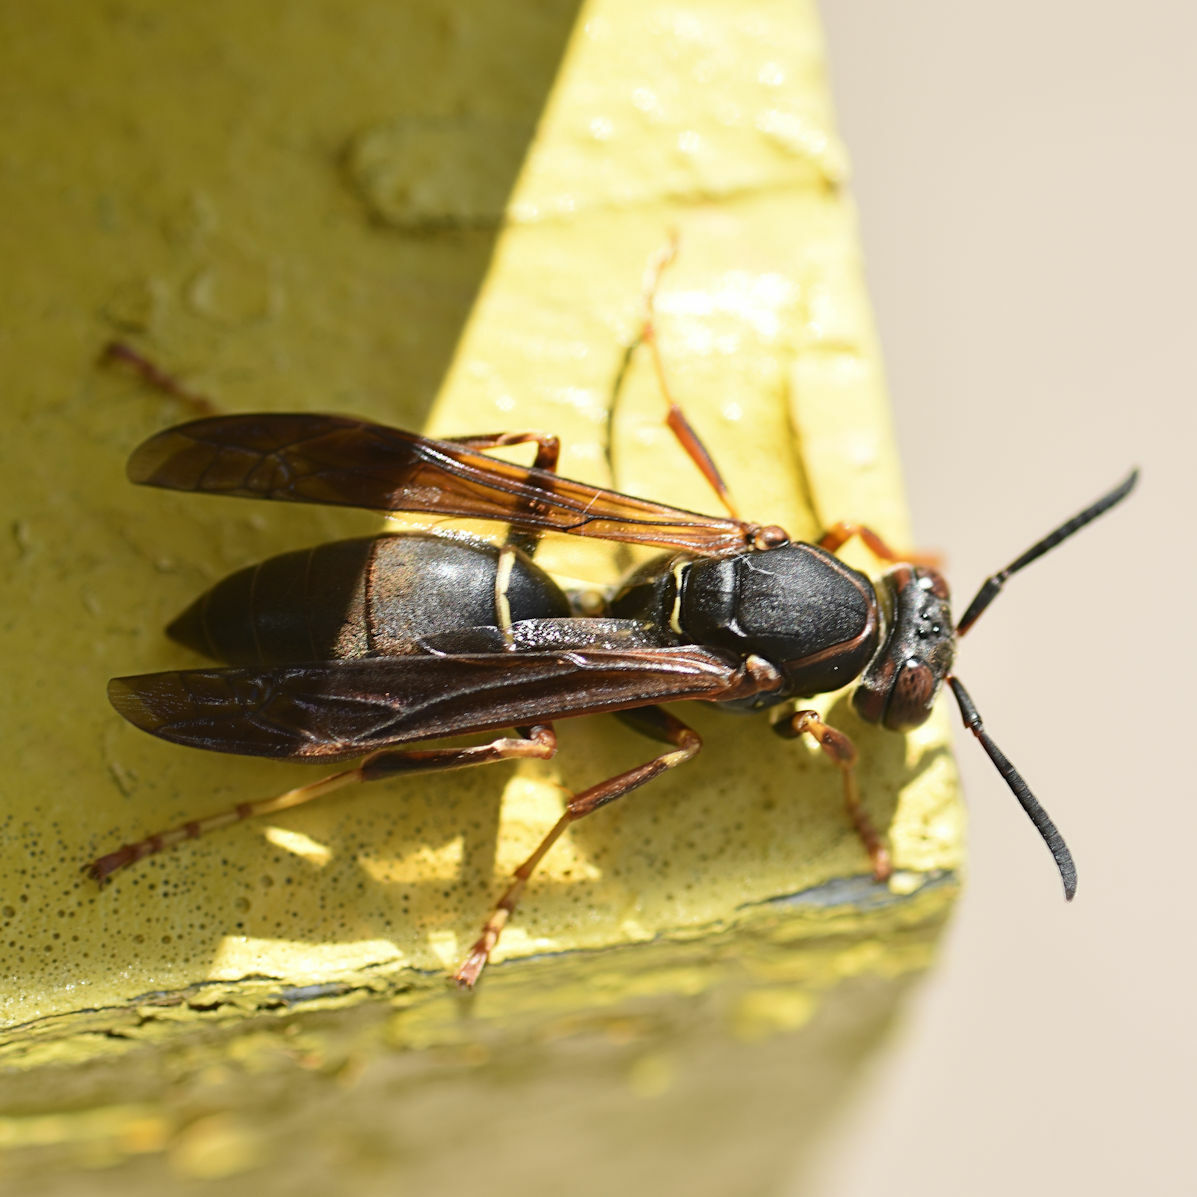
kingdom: Animalia
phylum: Arthropoda
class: Insecta
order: Hymenoptera
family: Eumenidae
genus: Polistes
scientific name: Polistes fuscatus
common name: Dark paper wasp
